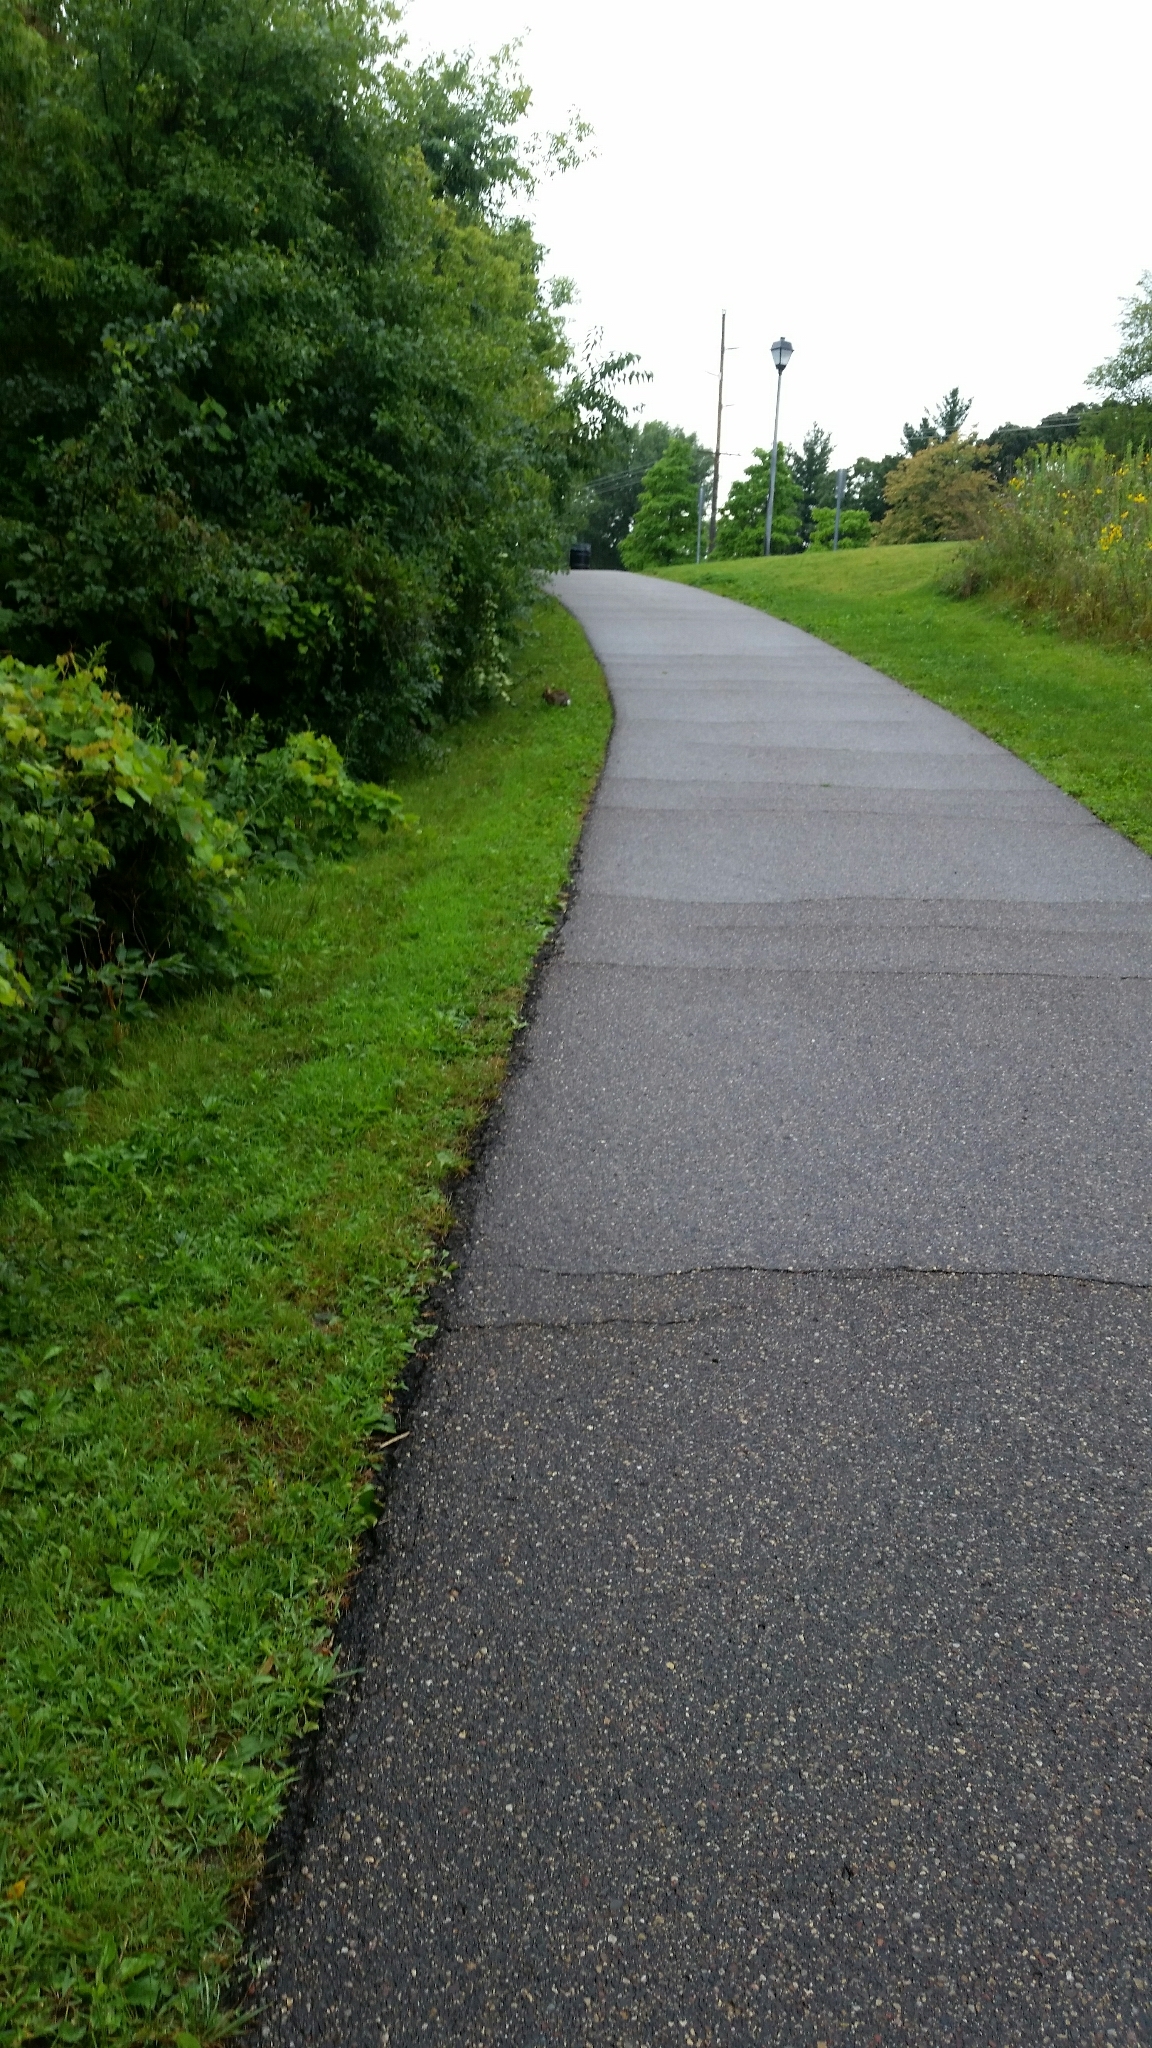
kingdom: Animalia
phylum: Chordata
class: Mammalia
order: Lagomorpha
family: Leporidae
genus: Sylvilagus
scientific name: Sylvilagus floridanus
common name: Eastern cottontail
